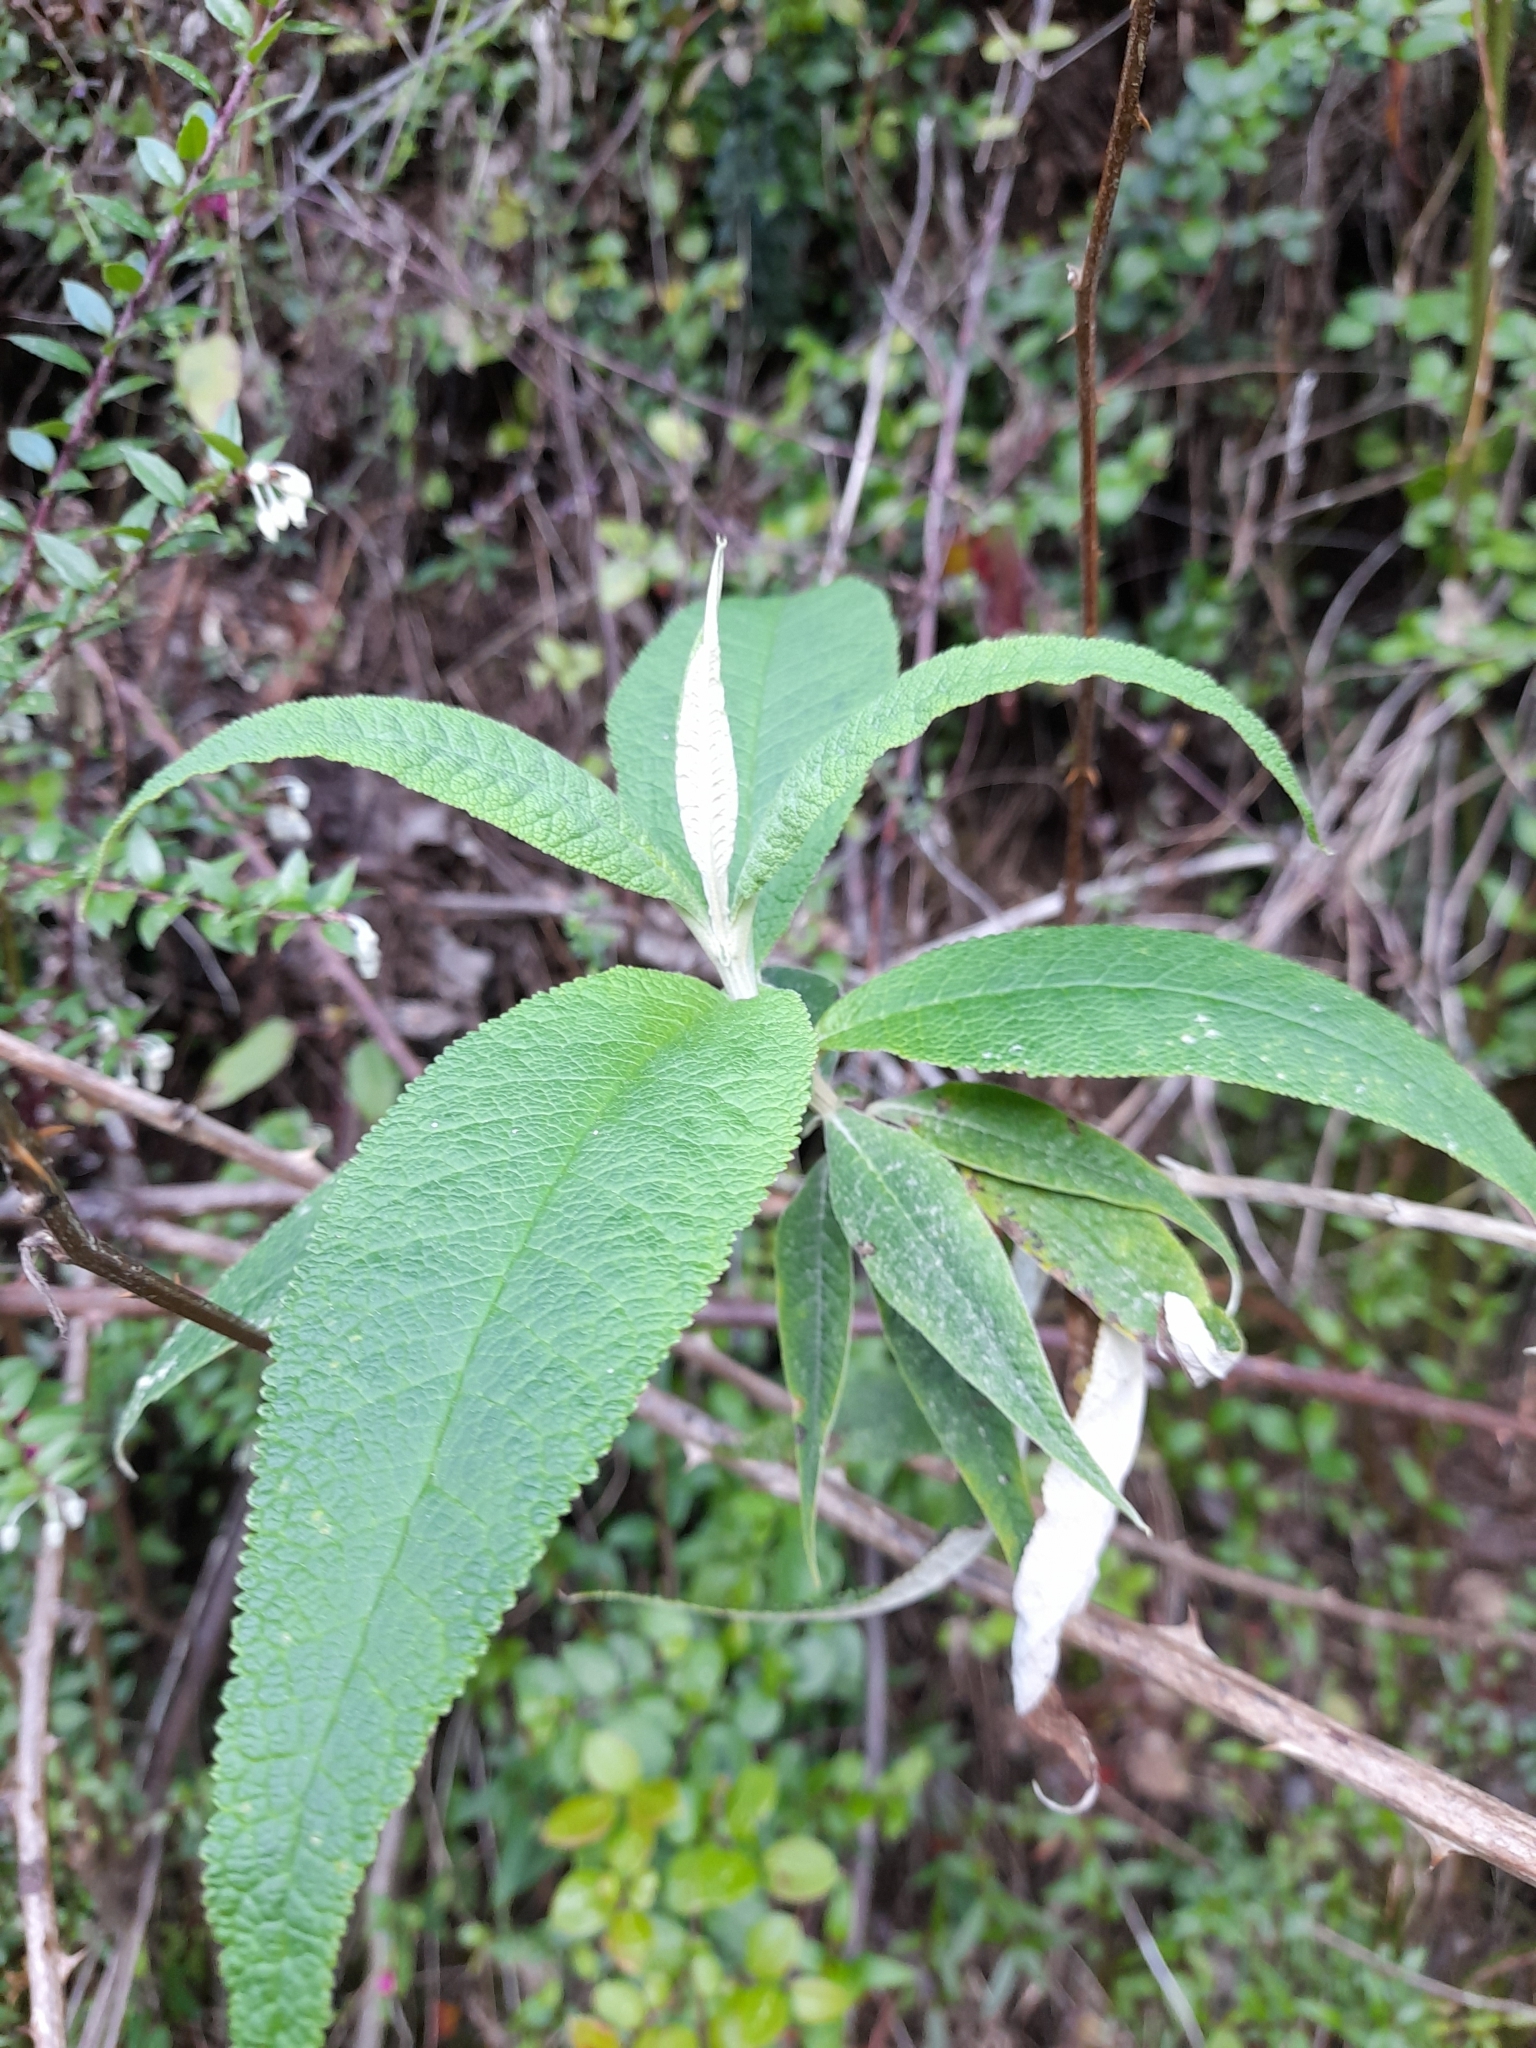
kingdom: Plantae
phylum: Tracheophyta
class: Magnoliopsida
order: Lamiales
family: Scrophulariaceae
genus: Buddleja
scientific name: Buddleja globosa
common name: Orange-ball-tree
